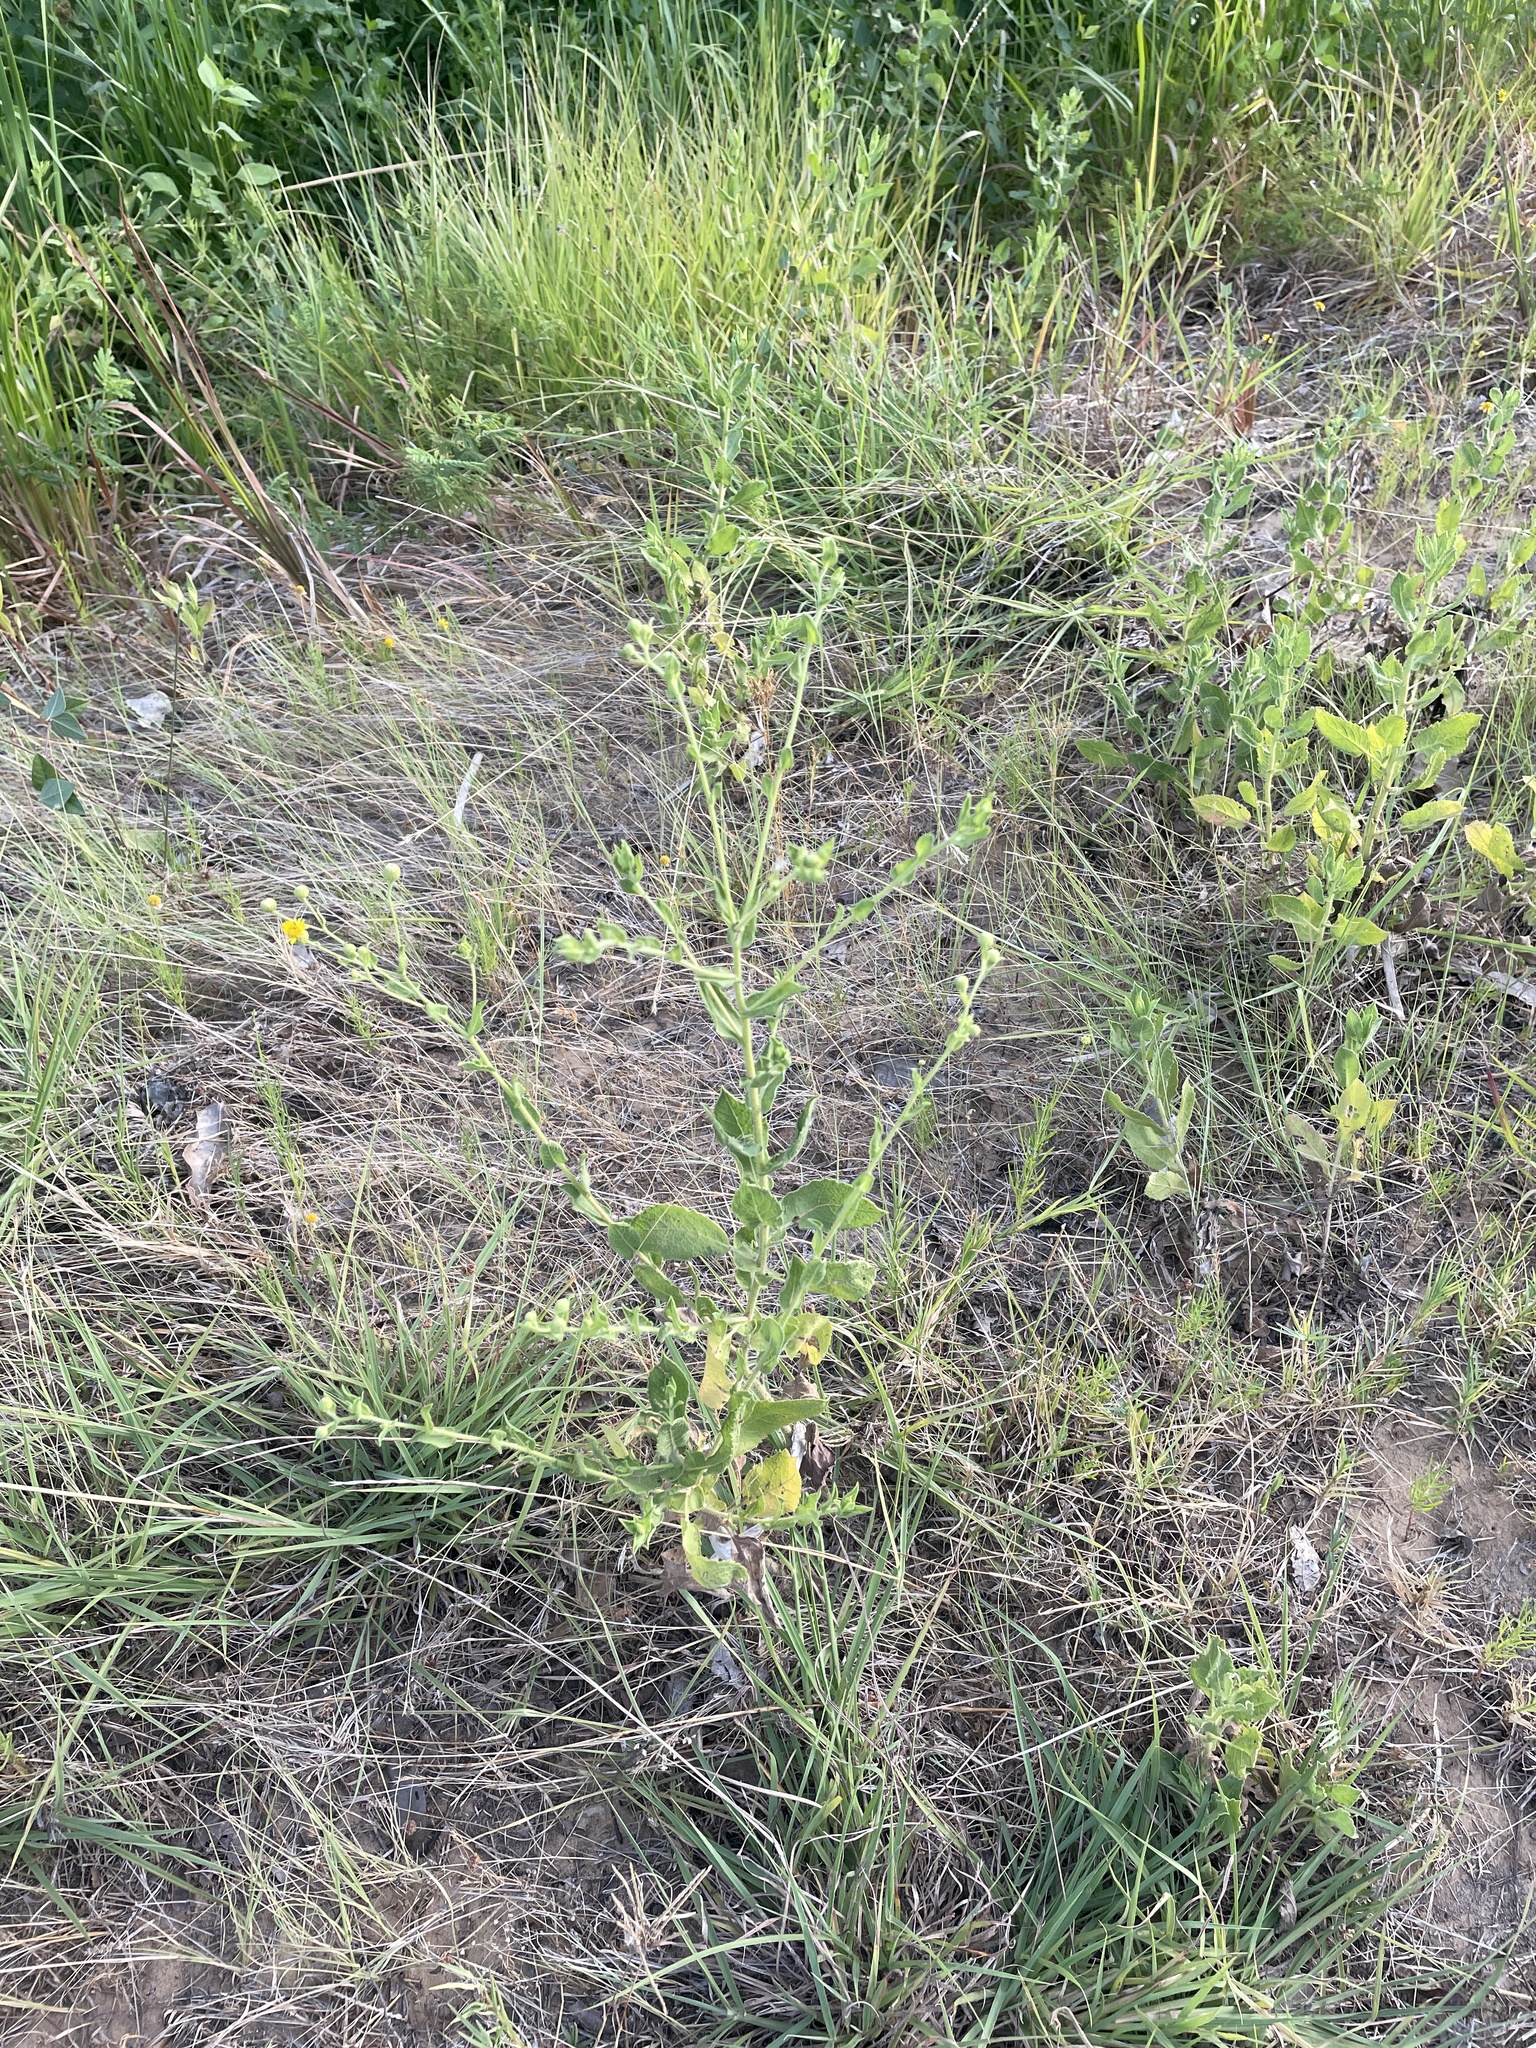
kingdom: Plantae
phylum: Tracheophyta
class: Magnoliopsida
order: Asterales
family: Asteraceae
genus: Heterotheca
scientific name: Heterotheca subaxillaris
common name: Camphorweed
